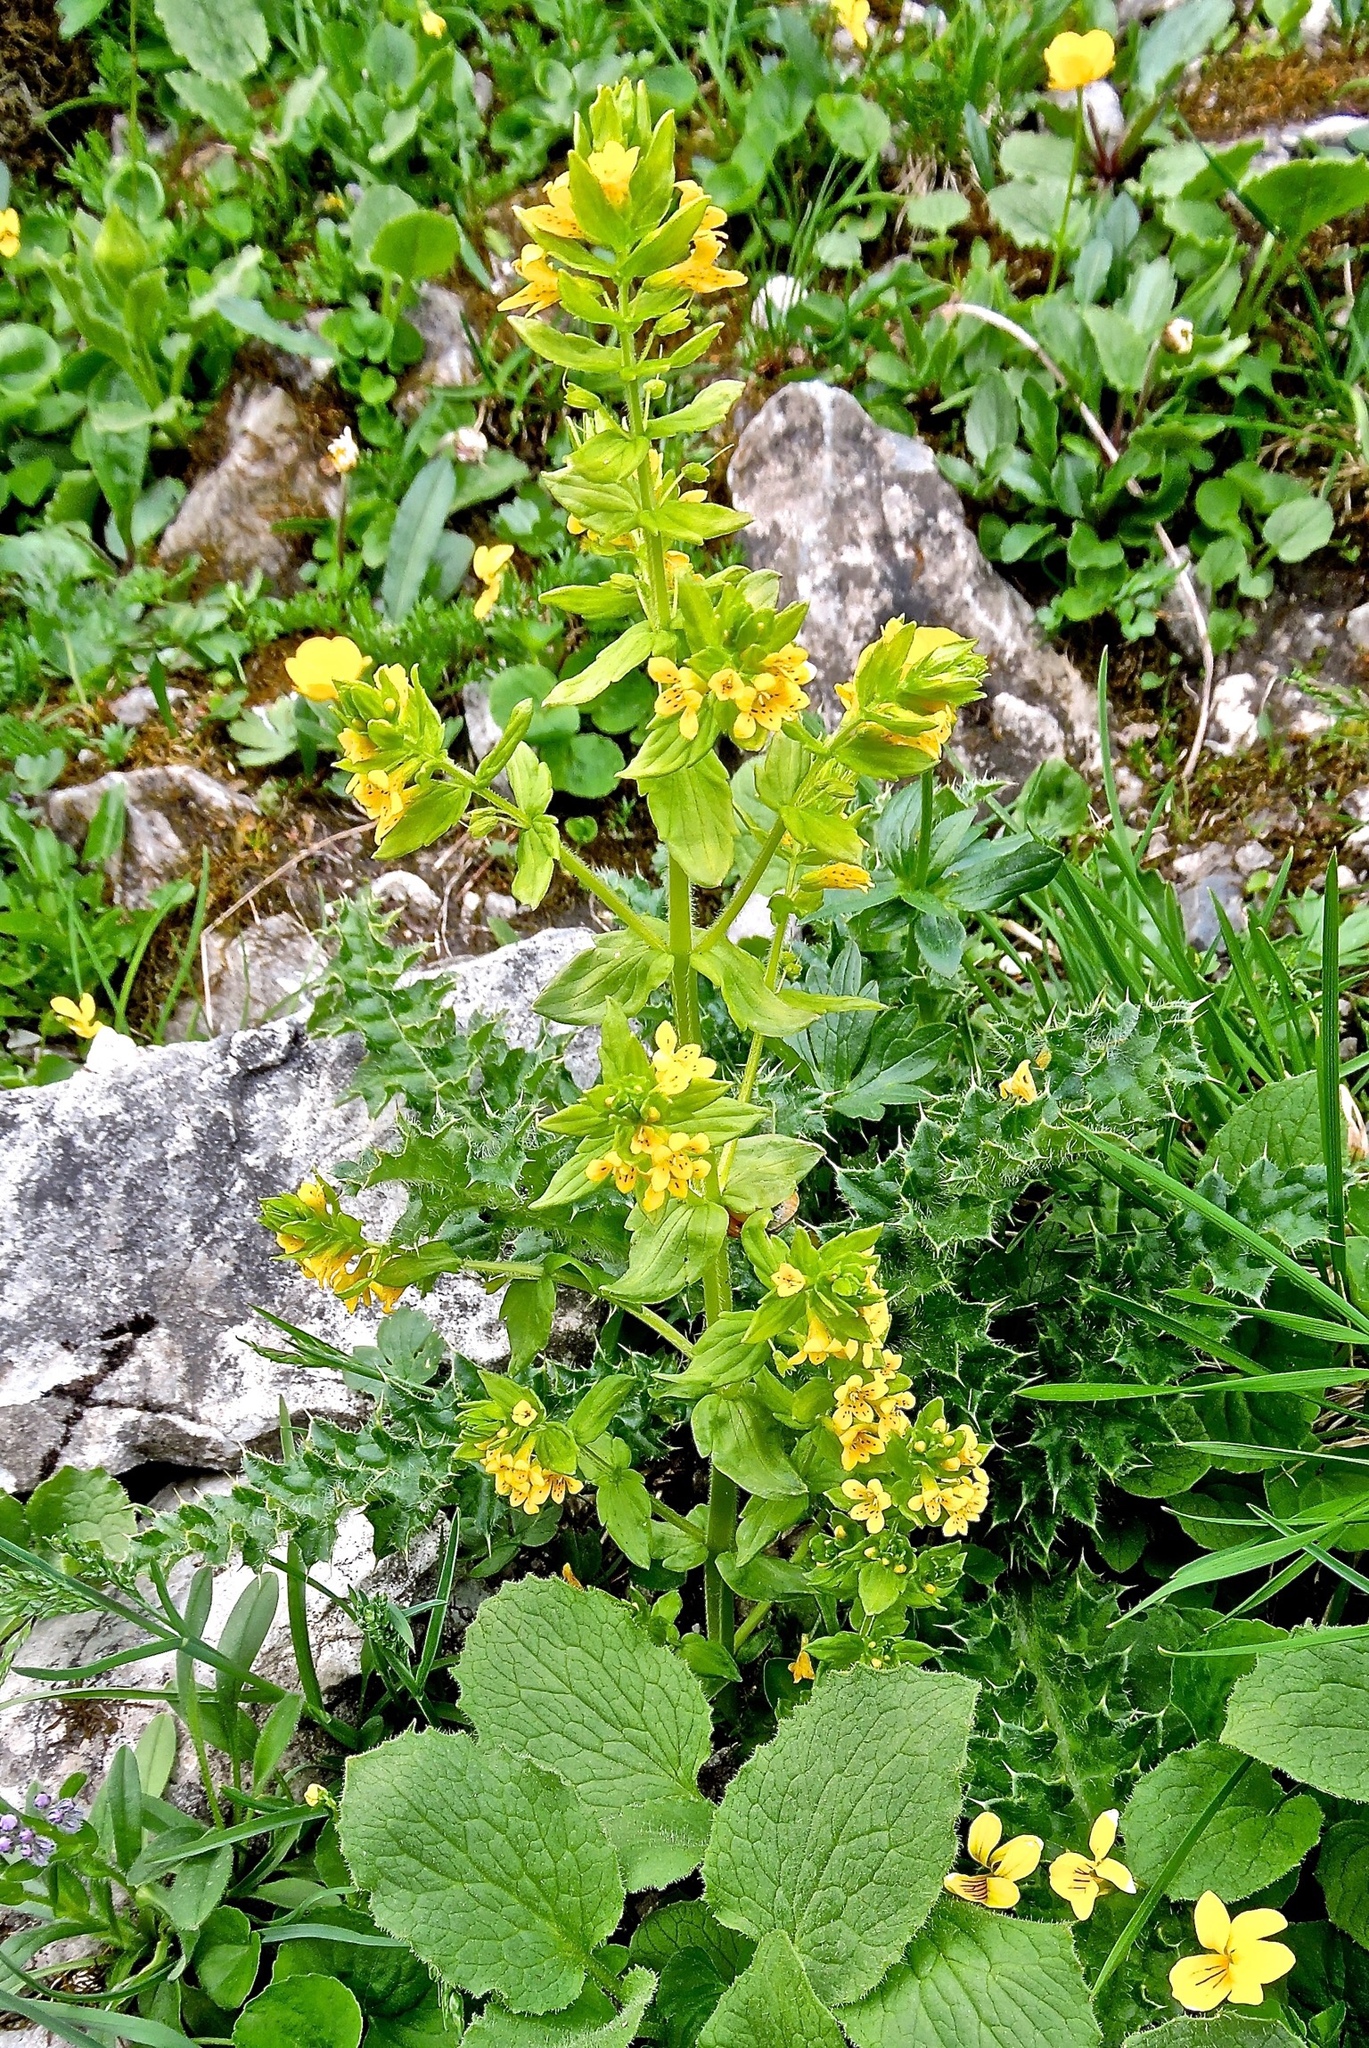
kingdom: Plantae
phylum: Tracheophyta
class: Magnoliopsida
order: Lamiales
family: Orobanchaceae
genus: Tozzia
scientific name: Tozzia alpina
